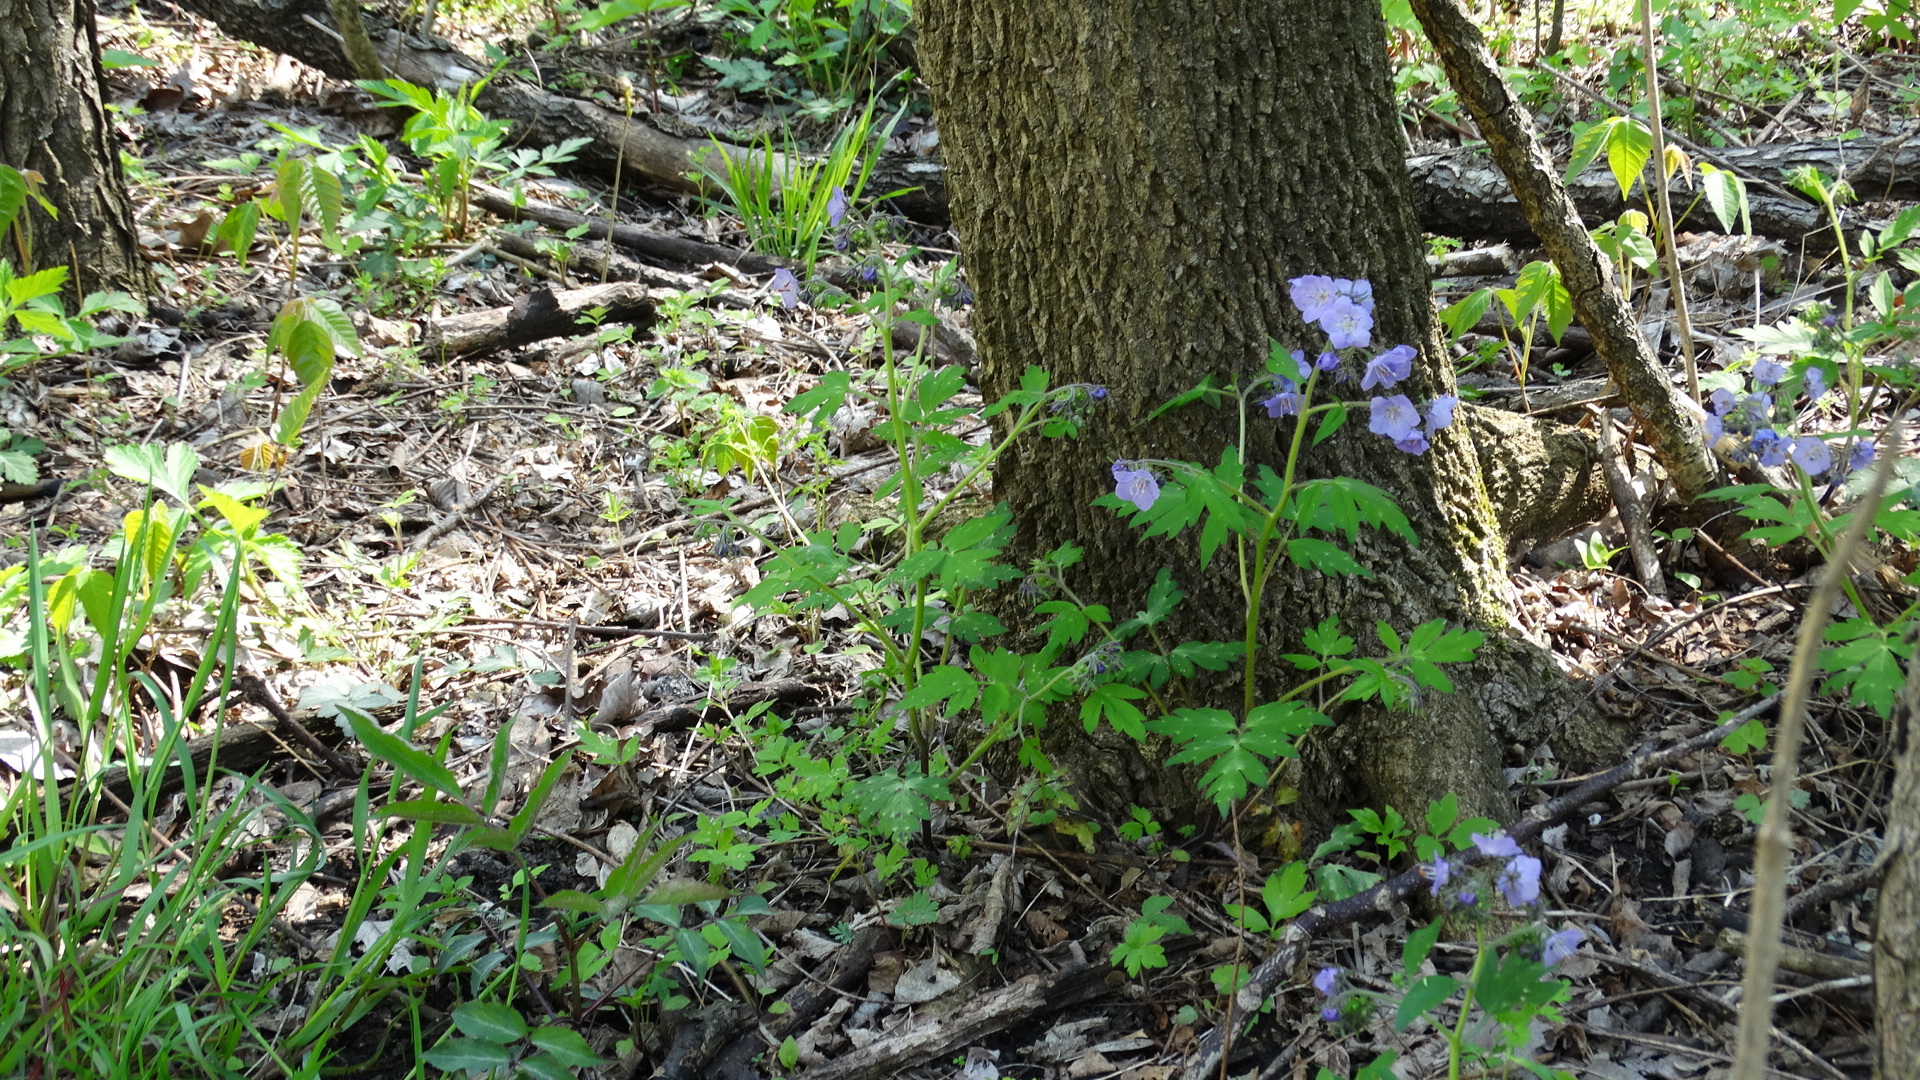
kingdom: Plantae
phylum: Tracheophyta
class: Magnoliopsida
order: Boraginales
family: Hydrophyllaceae
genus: Phacelia
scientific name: Phacelia bipinnatifida
